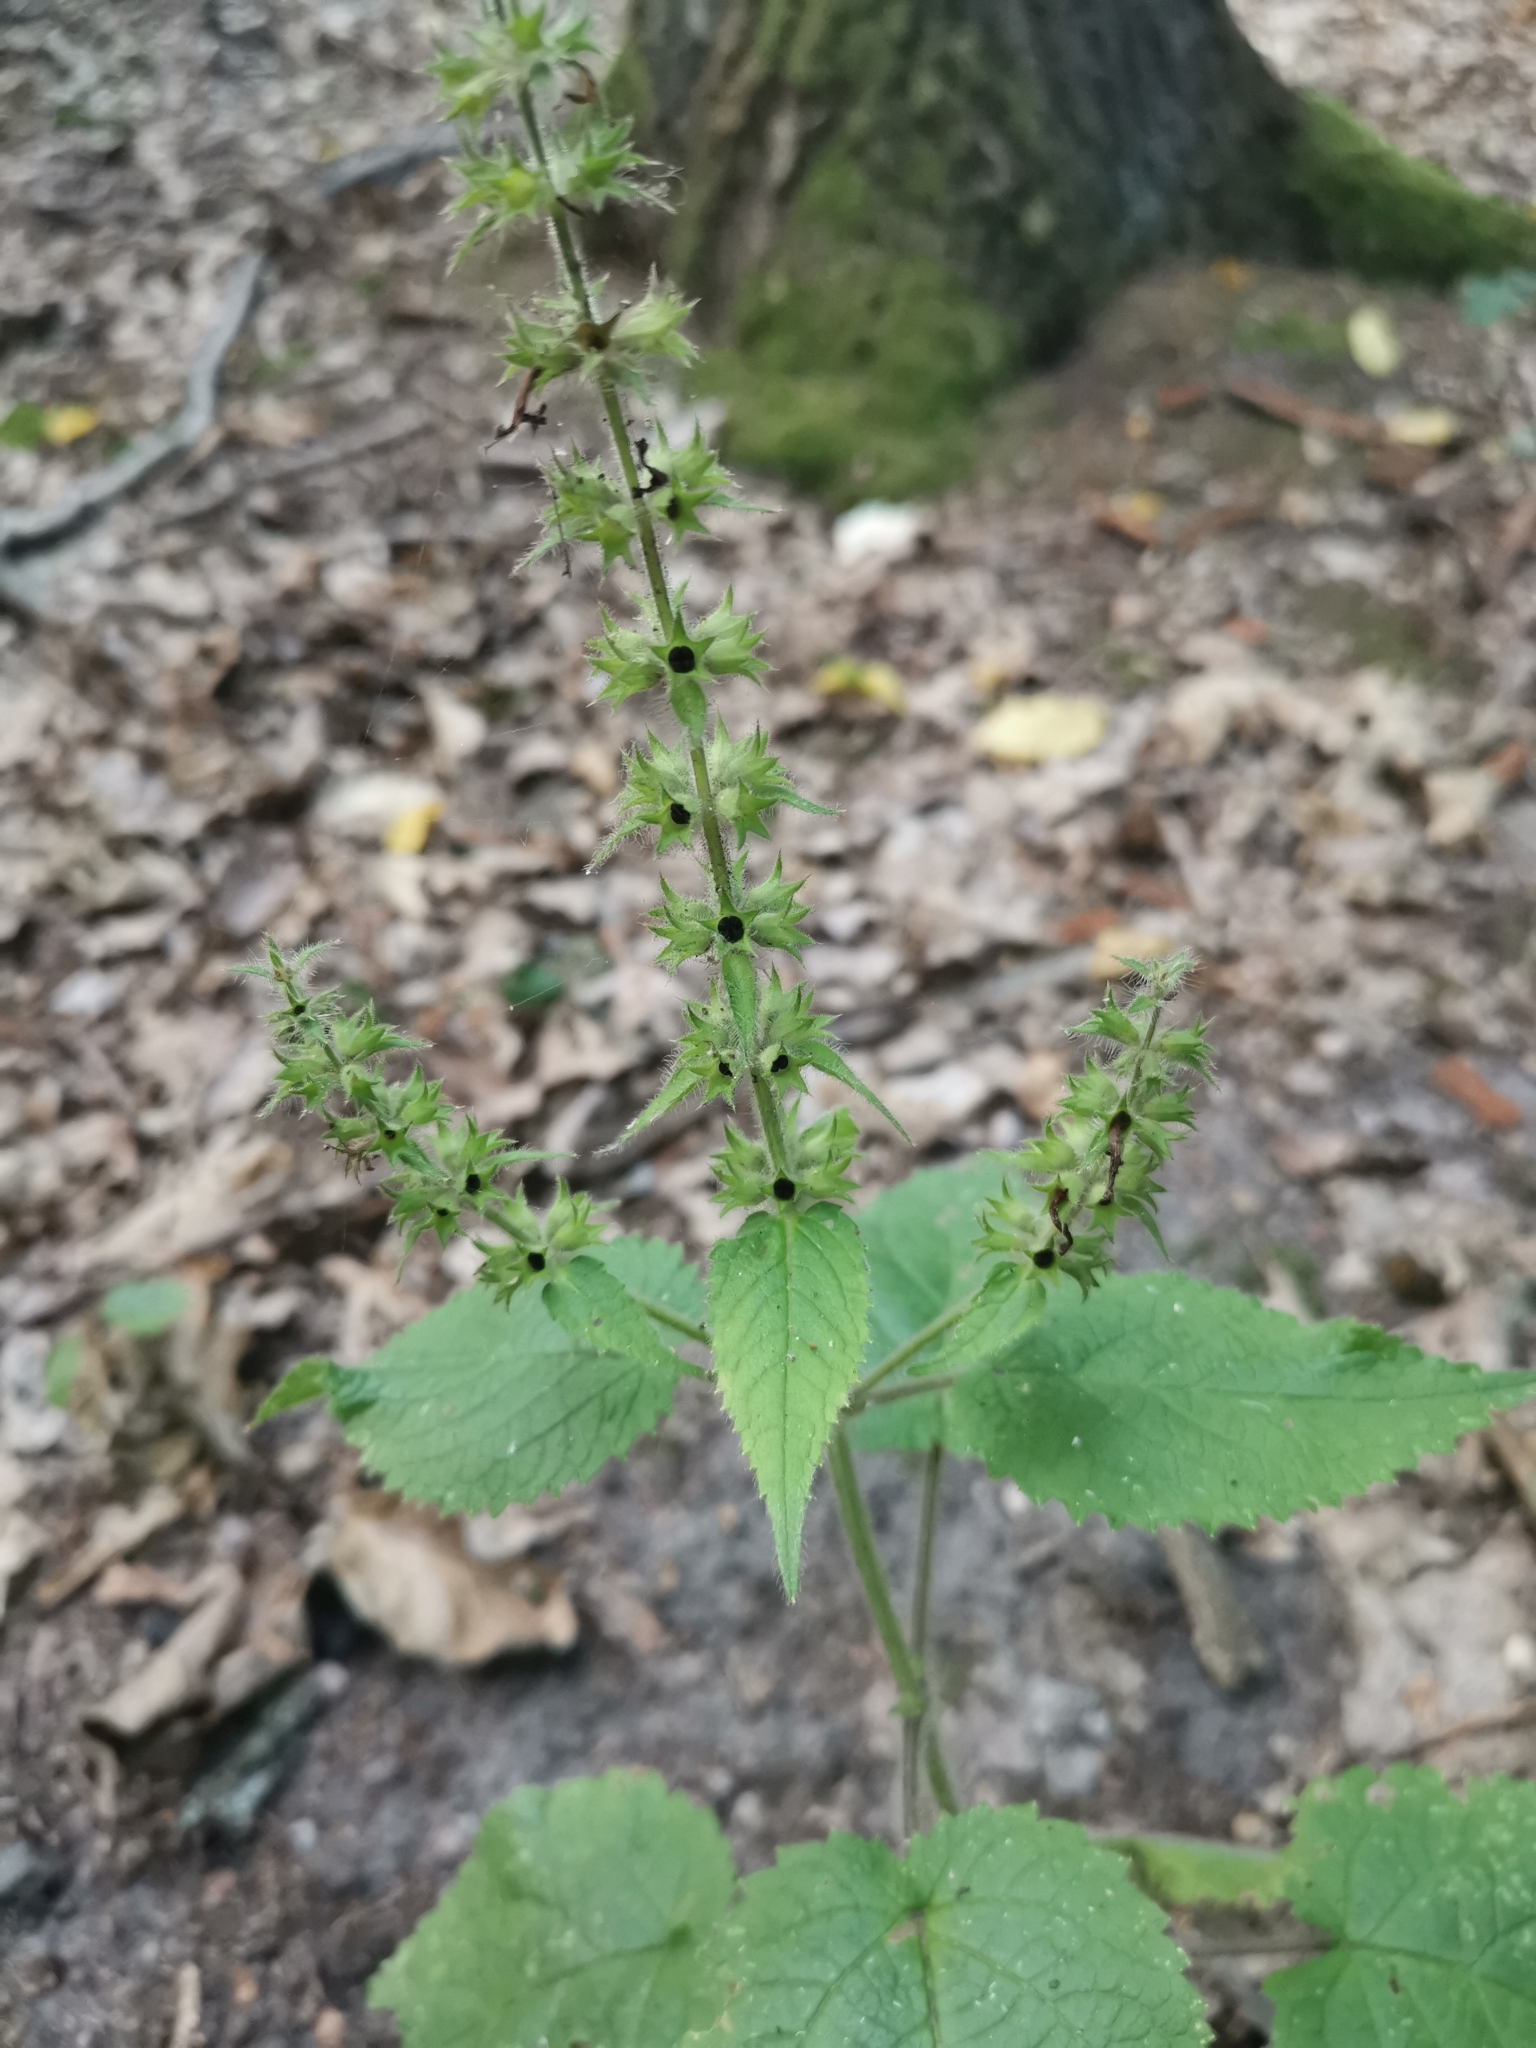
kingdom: Plantae
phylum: Tracheophyta
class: Magnoliopsida
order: Lamiales
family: Lamiaceae
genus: Stachys
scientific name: Stachys sylvatica
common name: Hedge woundwort
